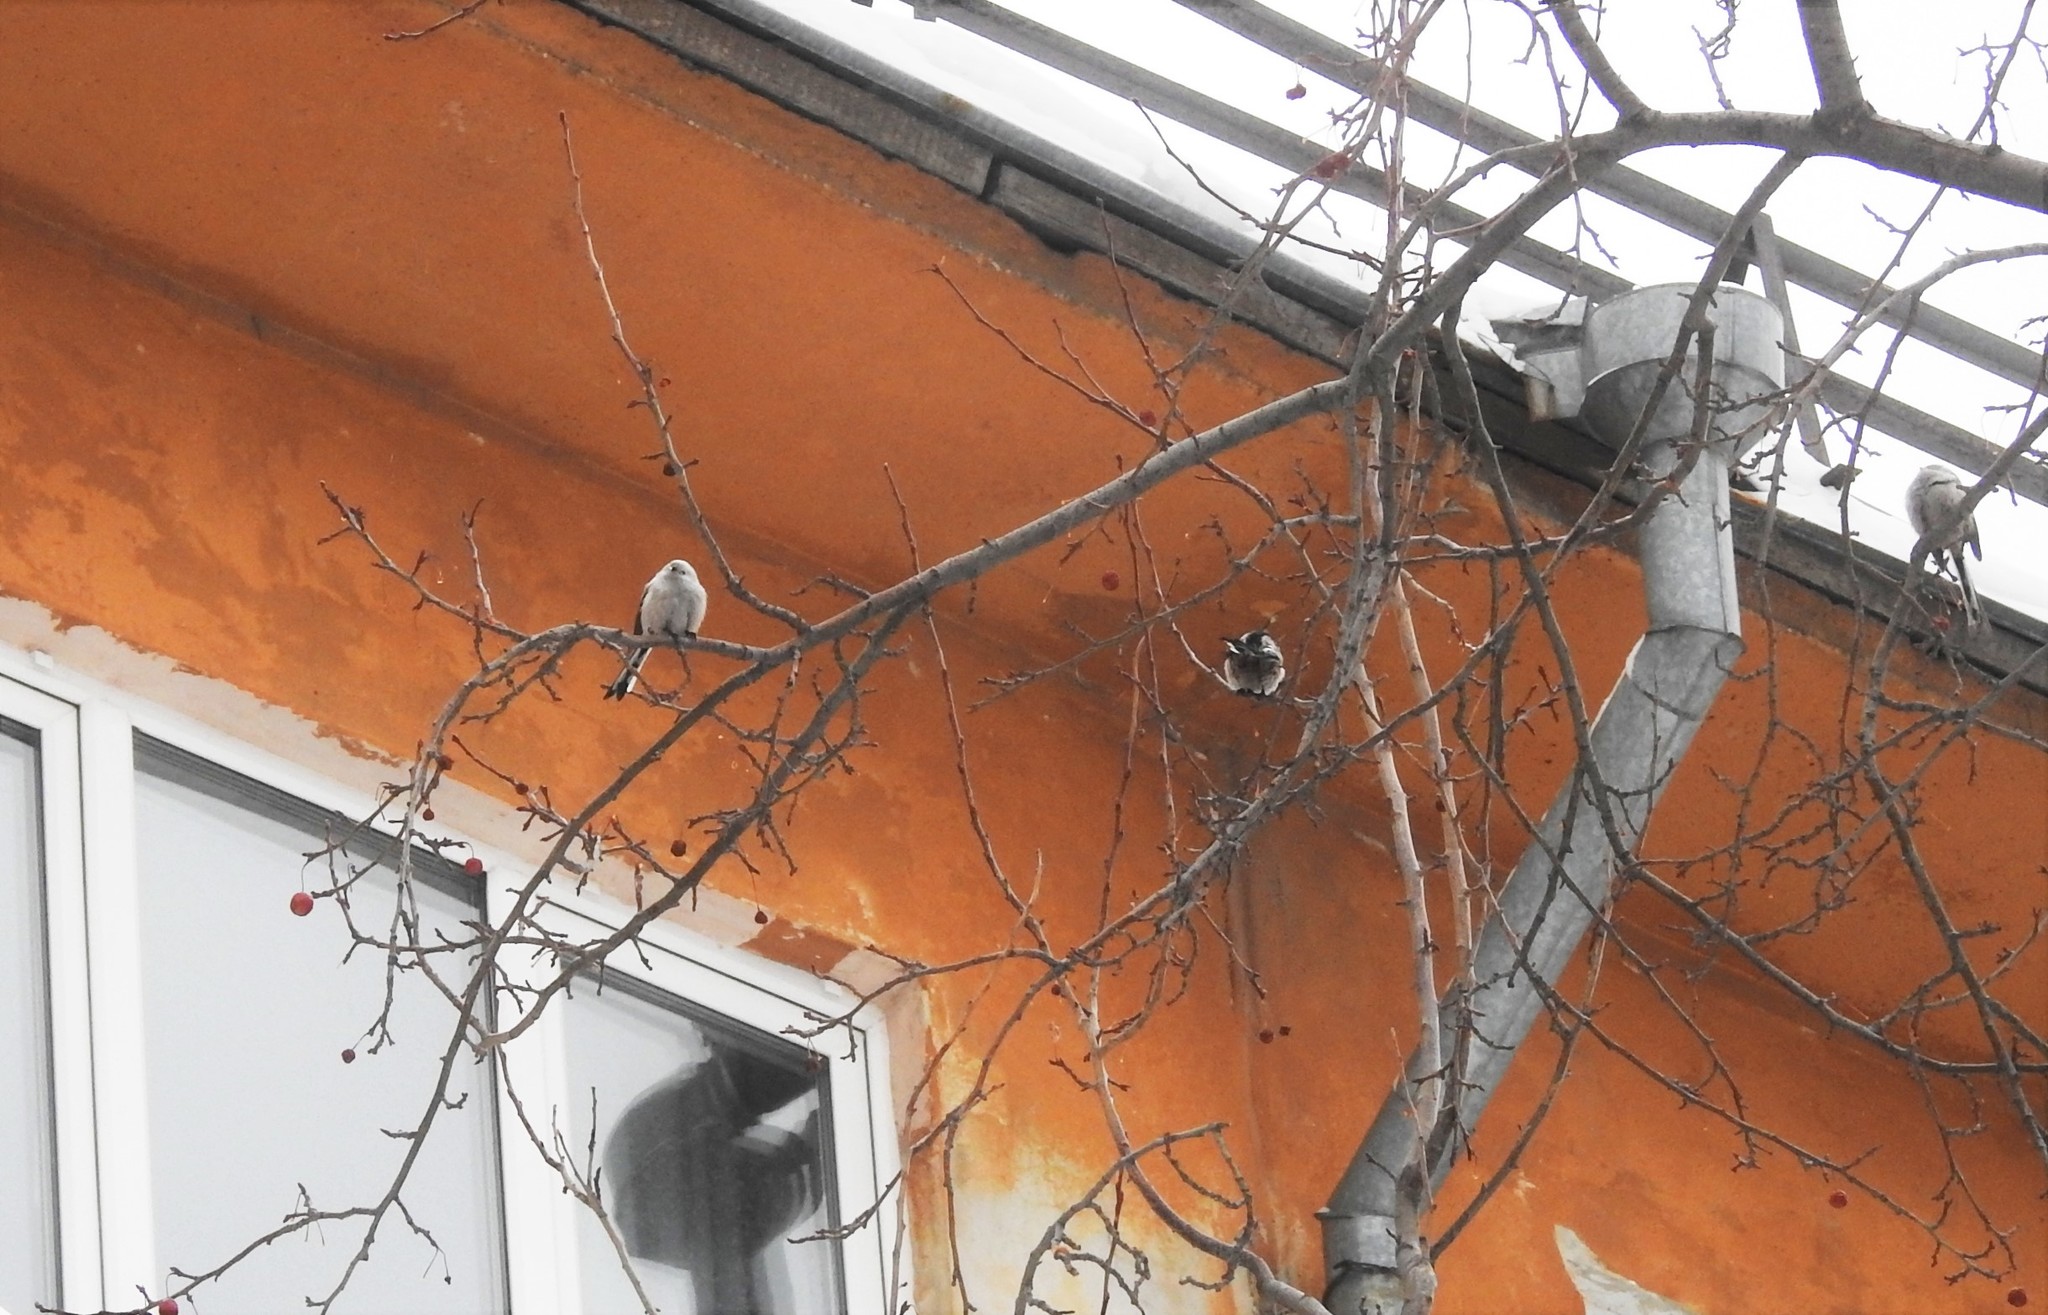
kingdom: Animalia
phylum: Chordata
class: Aves
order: Passeriformes
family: Aegithalidae
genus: Aegithalos
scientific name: Aegithalos caudatus
